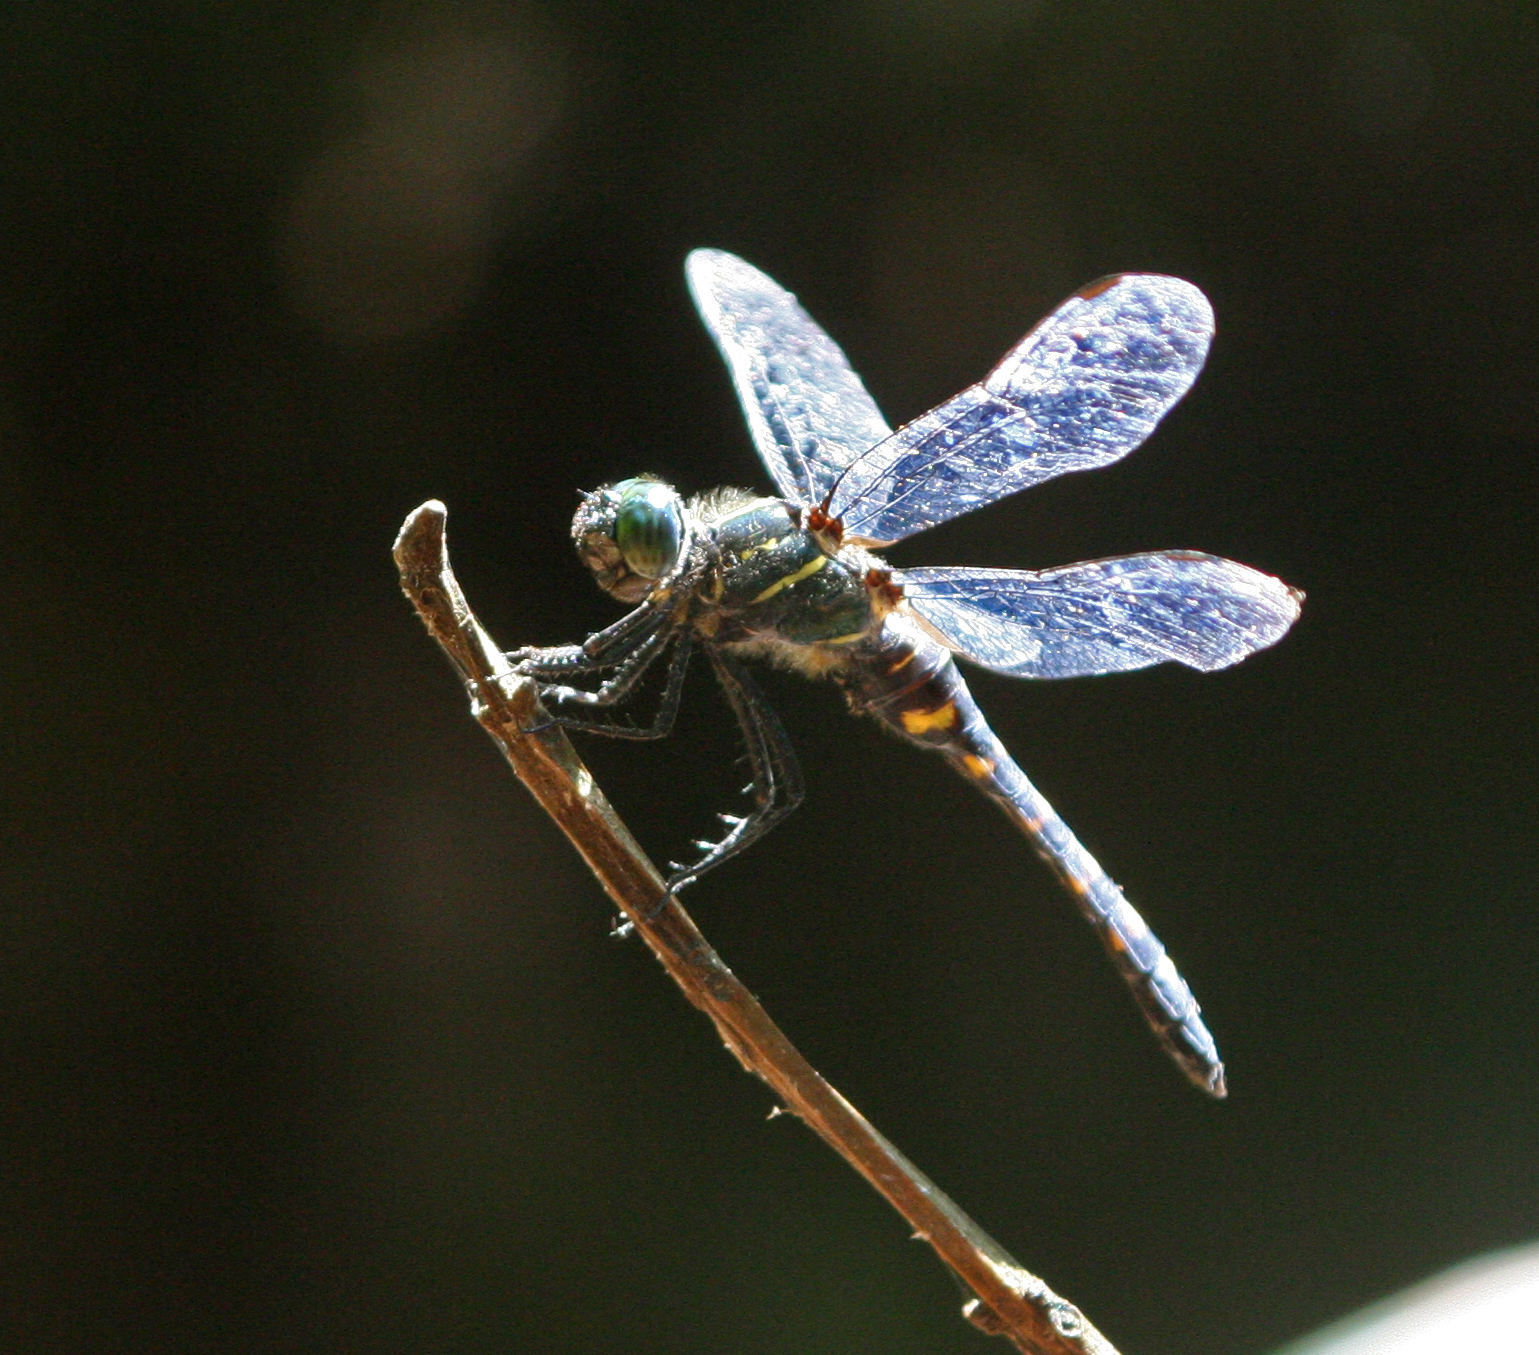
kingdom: Animalia
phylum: Arthropoda
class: Insecta
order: Odonata
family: Libellulidae
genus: Onychothemis
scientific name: Onychothemis testacea
